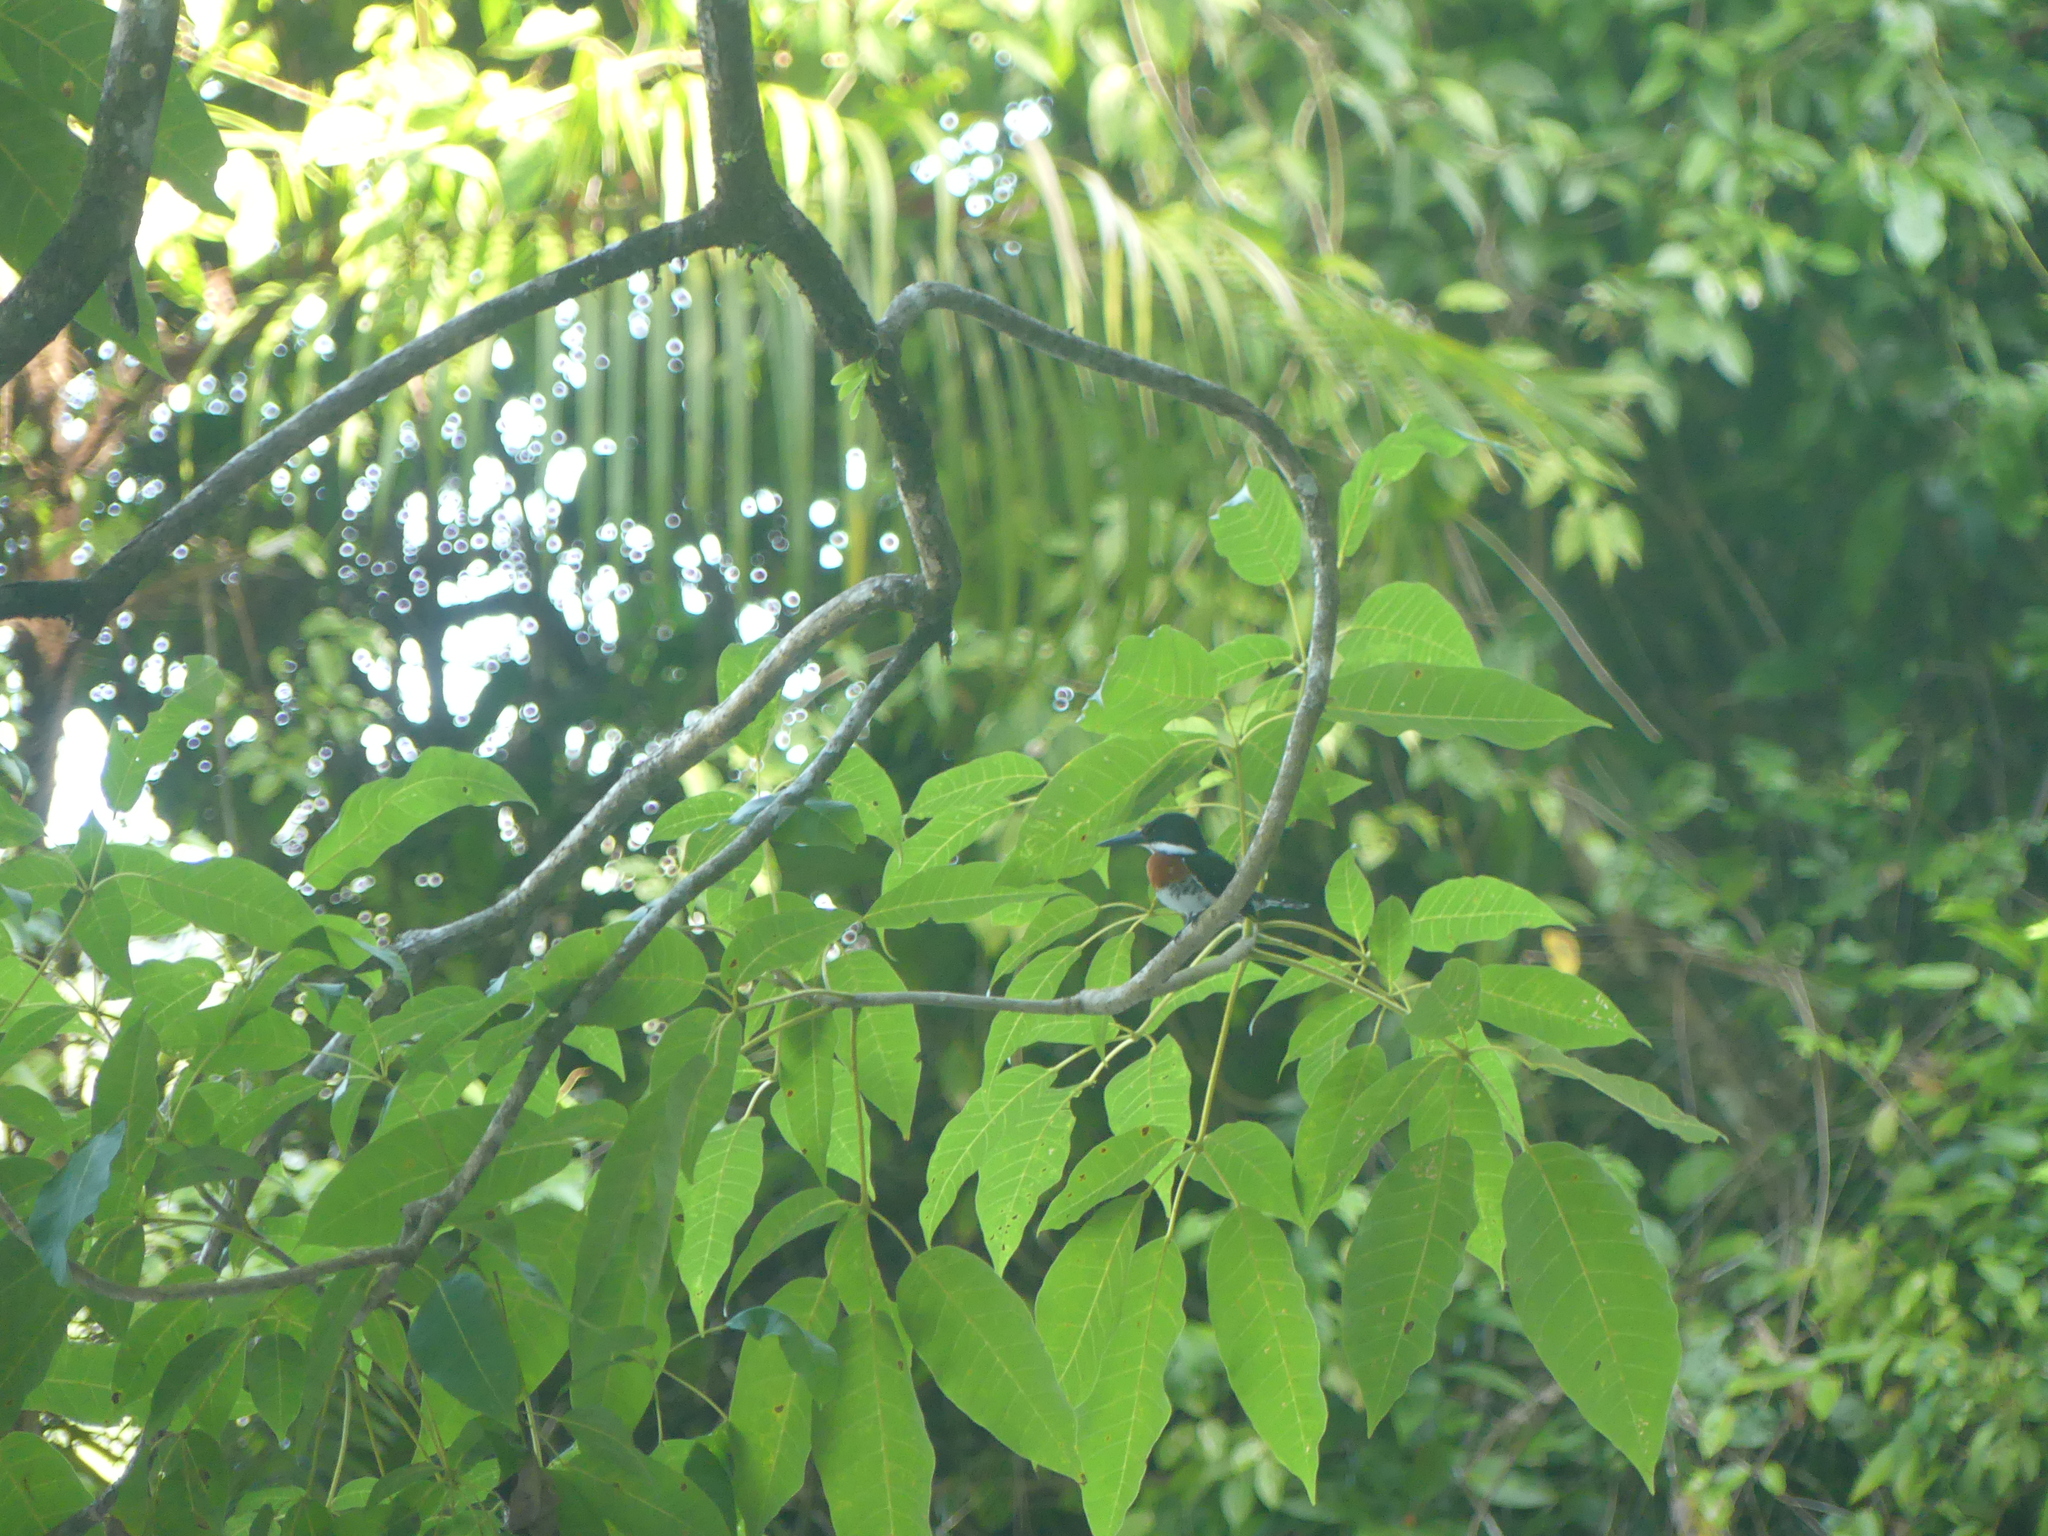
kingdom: Animalia
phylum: Chordata
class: Aves
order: Coraciiformes
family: Alcedinidae
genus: Chloroceryle
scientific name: Chloroceryle americana
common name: Green kingfisher
